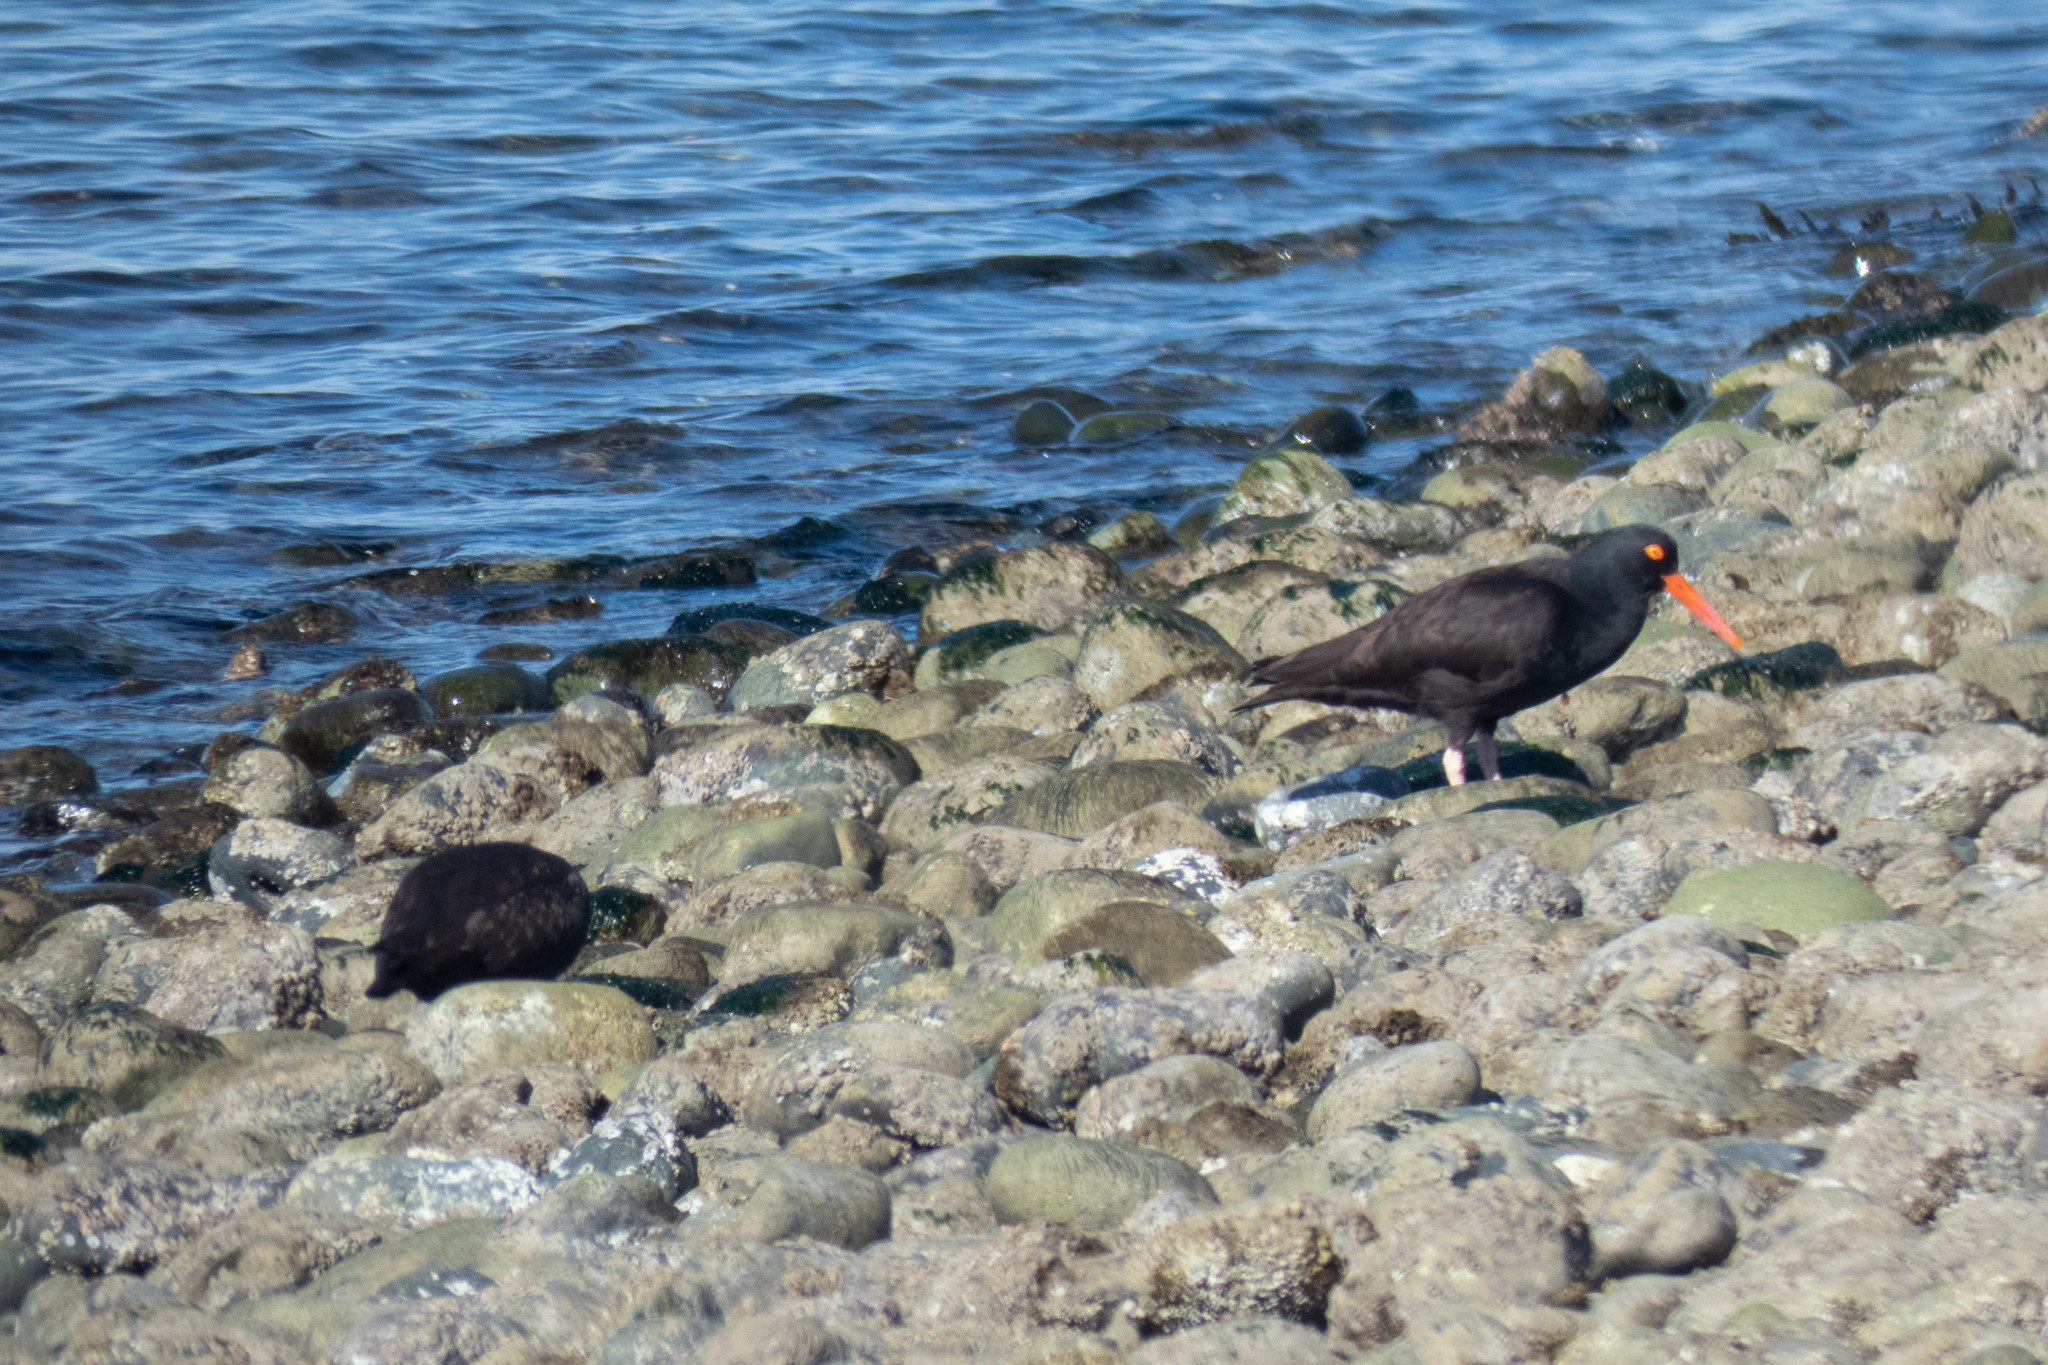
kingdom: Animalia
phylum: Chordata
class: Aves
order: Charadriiformes
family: Haematopodidae
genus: Haematopus
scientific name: Haematopus bachmani
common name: Black oystercatcher
